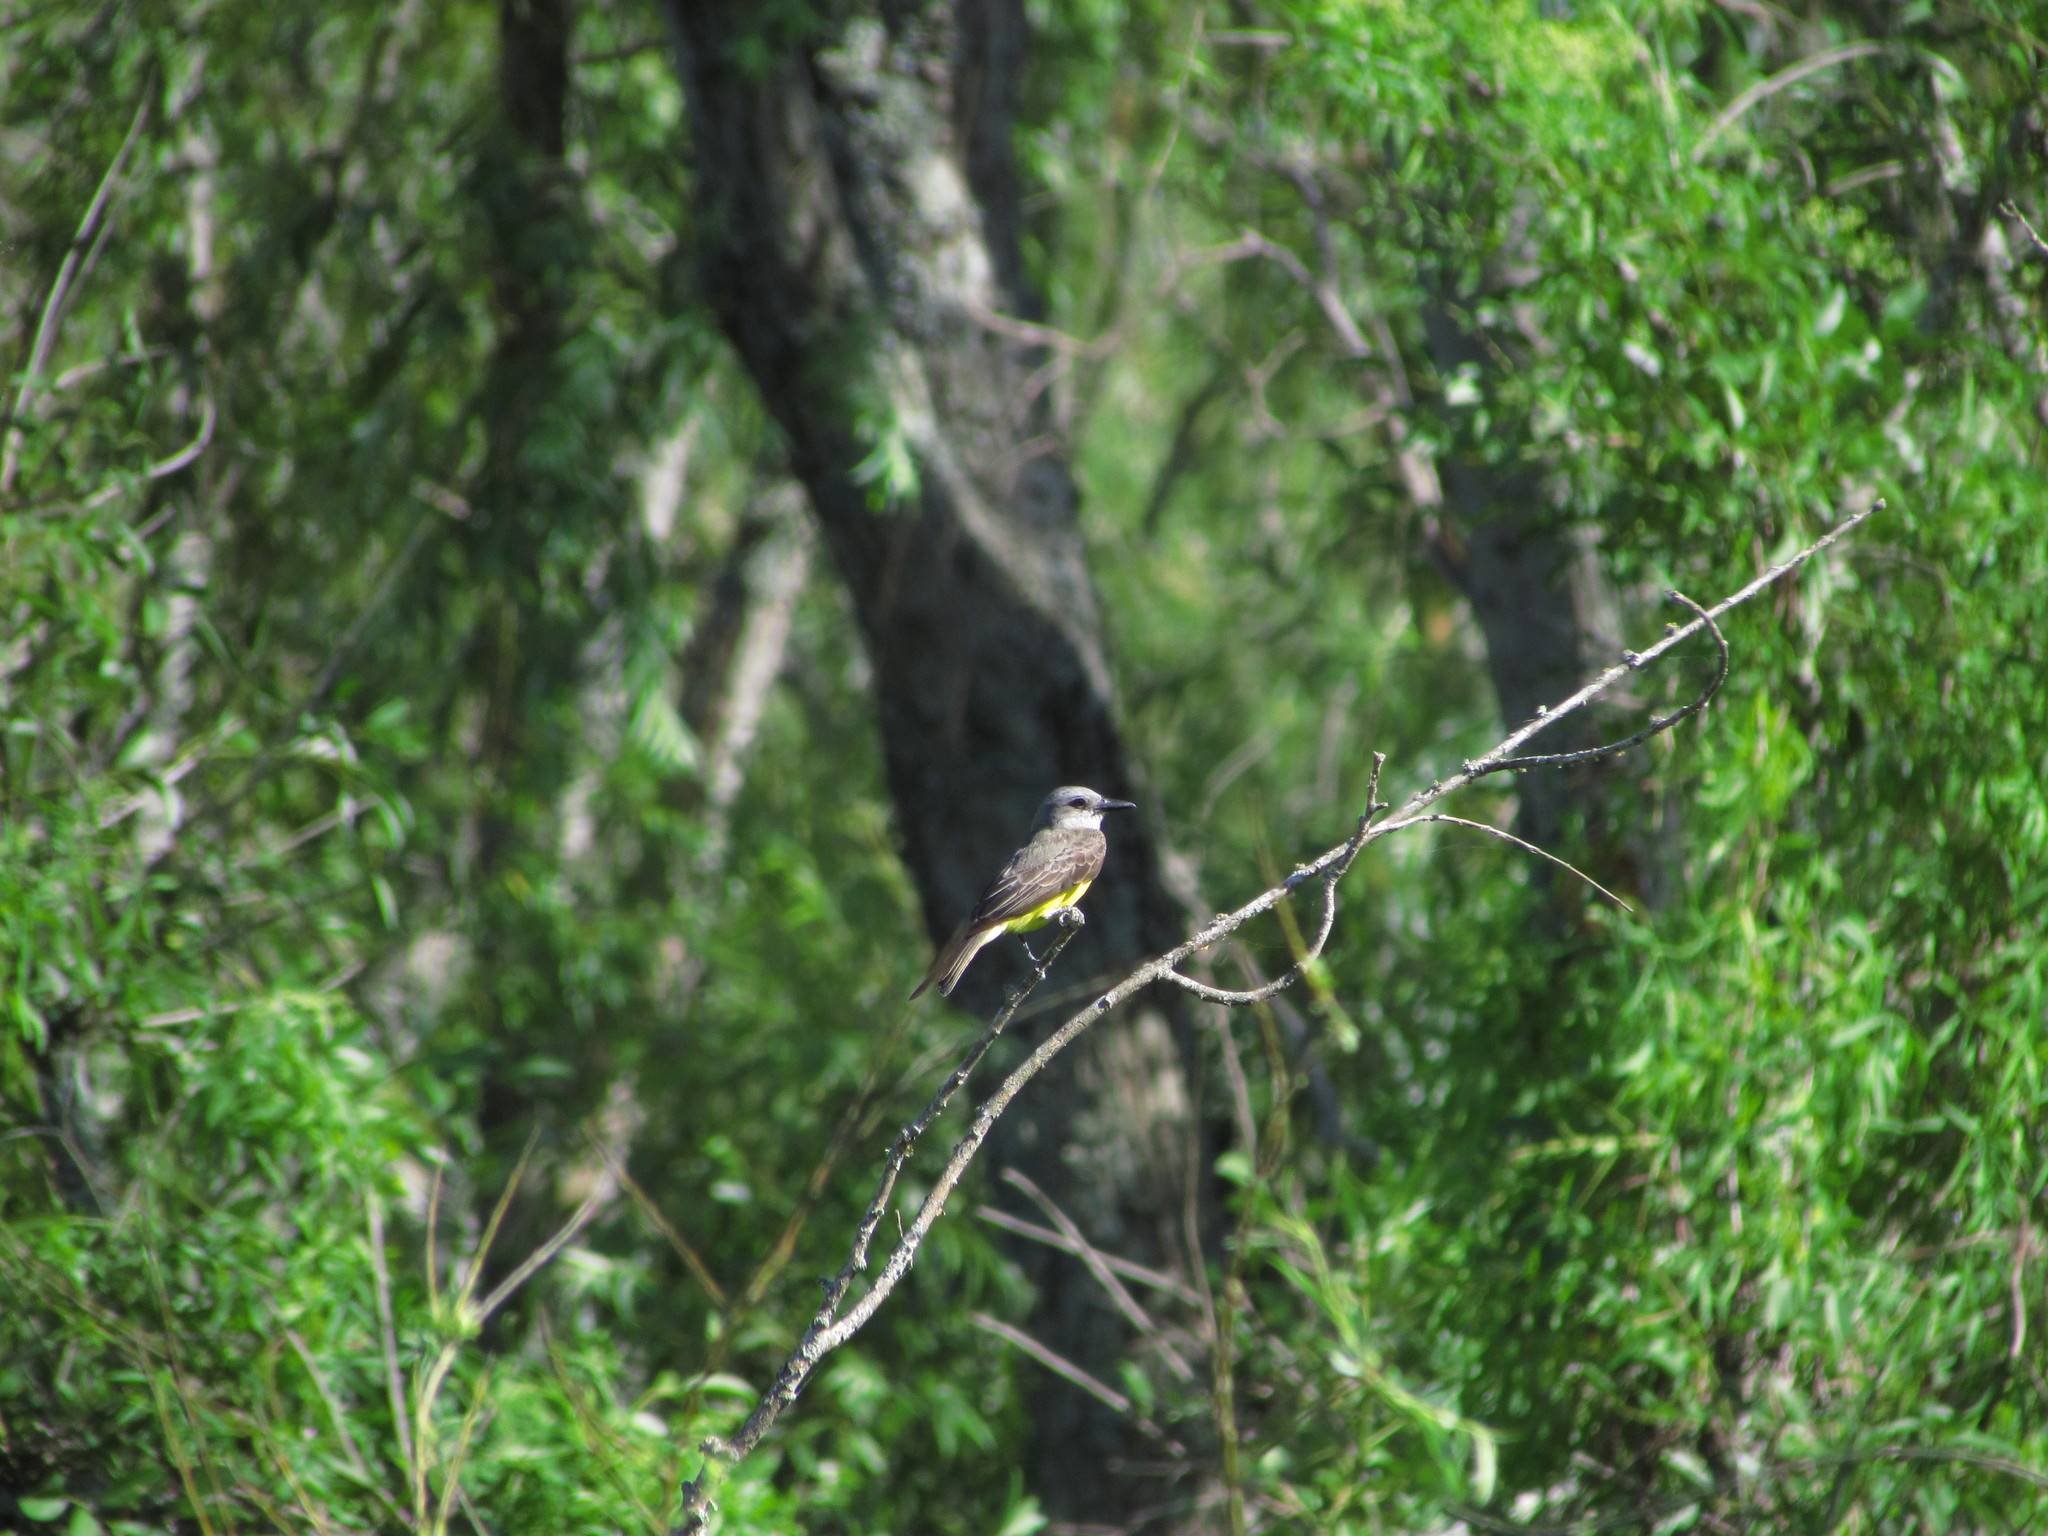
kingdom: Animalia
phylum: Chordata
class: Aves
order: Passeriformes
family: Tyrannidae
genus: Tyrannus
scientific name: Tyrannus melancholicus
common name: Tropical kingbird
